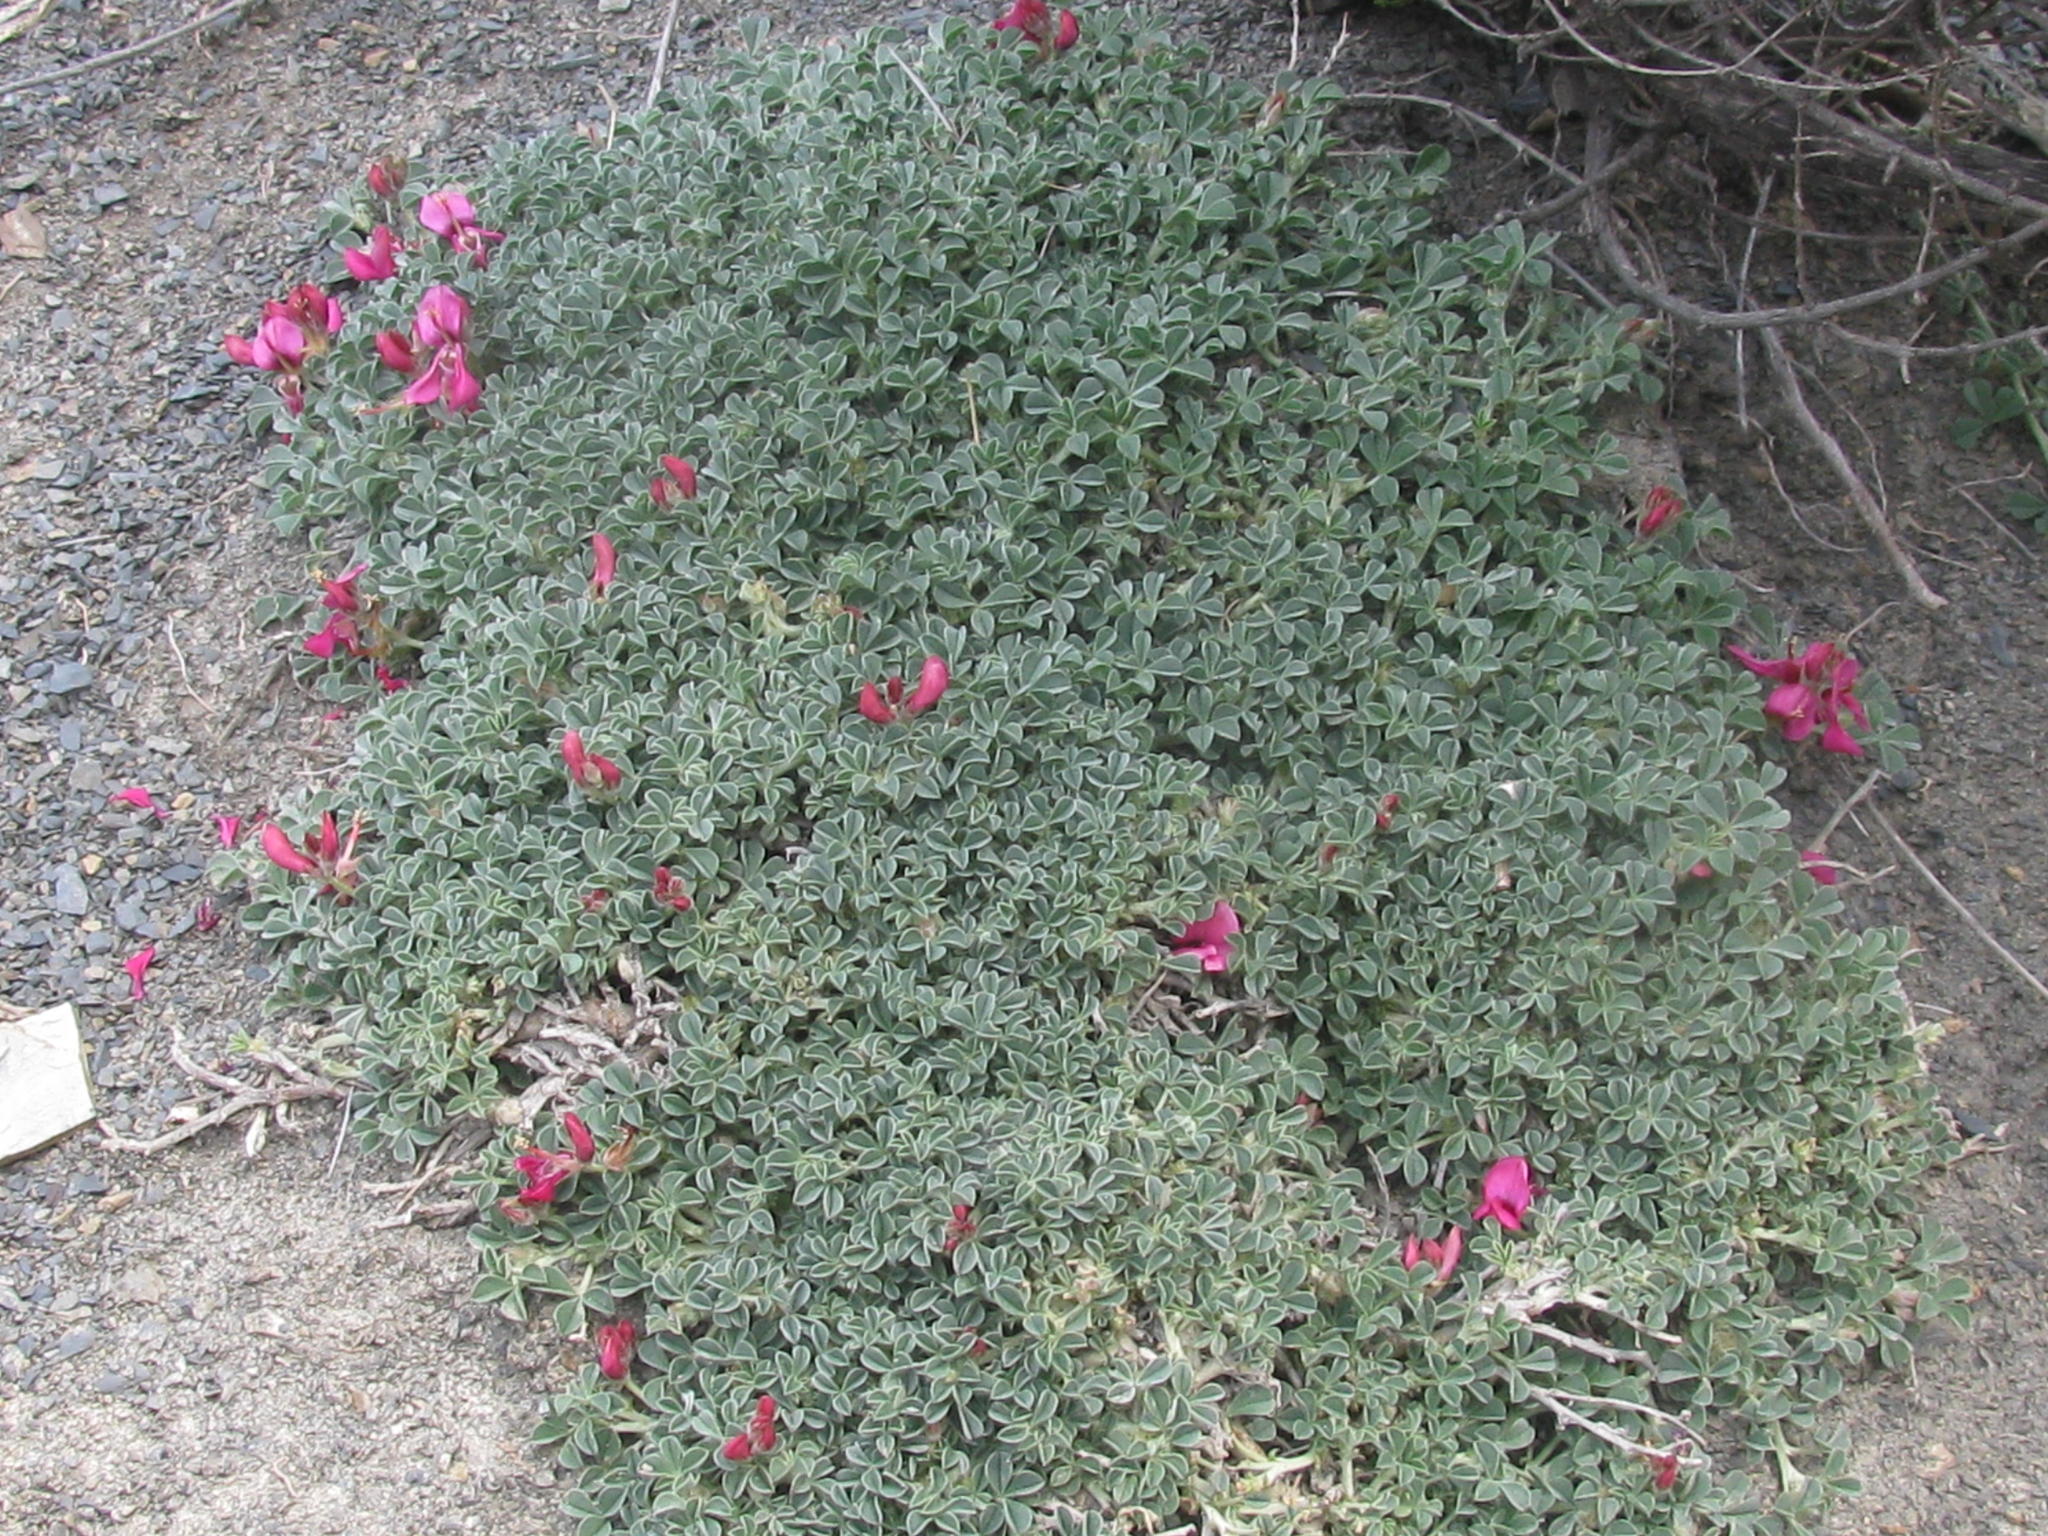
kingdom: Plantae
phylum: Tracheophyta
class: Magnoliopsida
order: Fabales
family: Fabaceae
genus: Indigofera
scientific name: Indigofera hantamensis
